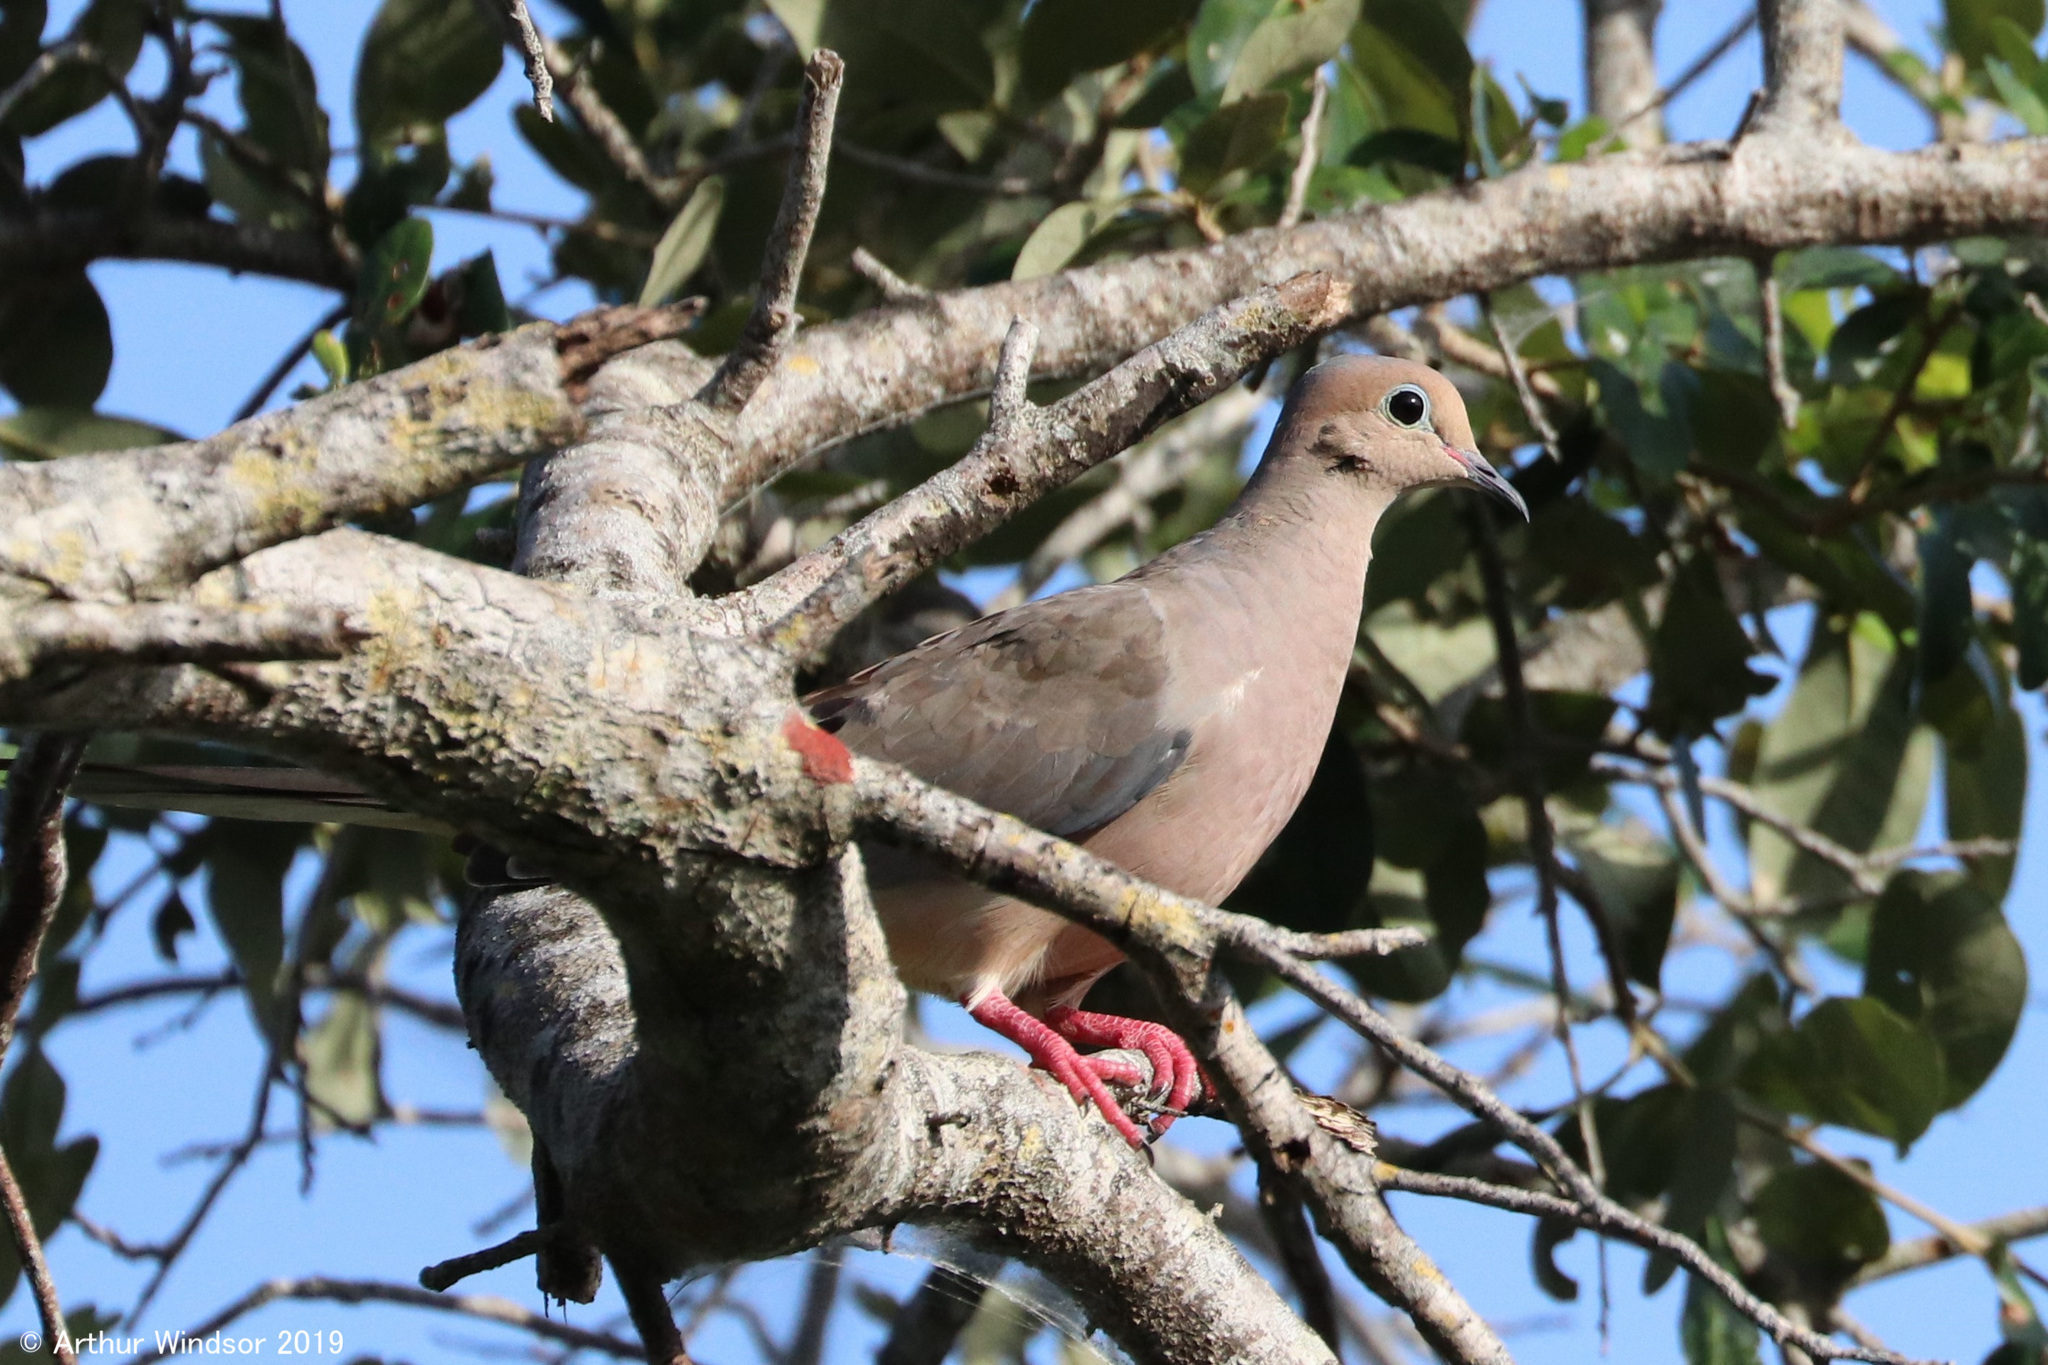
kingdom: Animalia
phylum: Chordata
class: Aves
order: Columbiformes
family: Columbidae
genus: Zenaida
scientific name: Zenaida macroura
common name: Mourning dove
